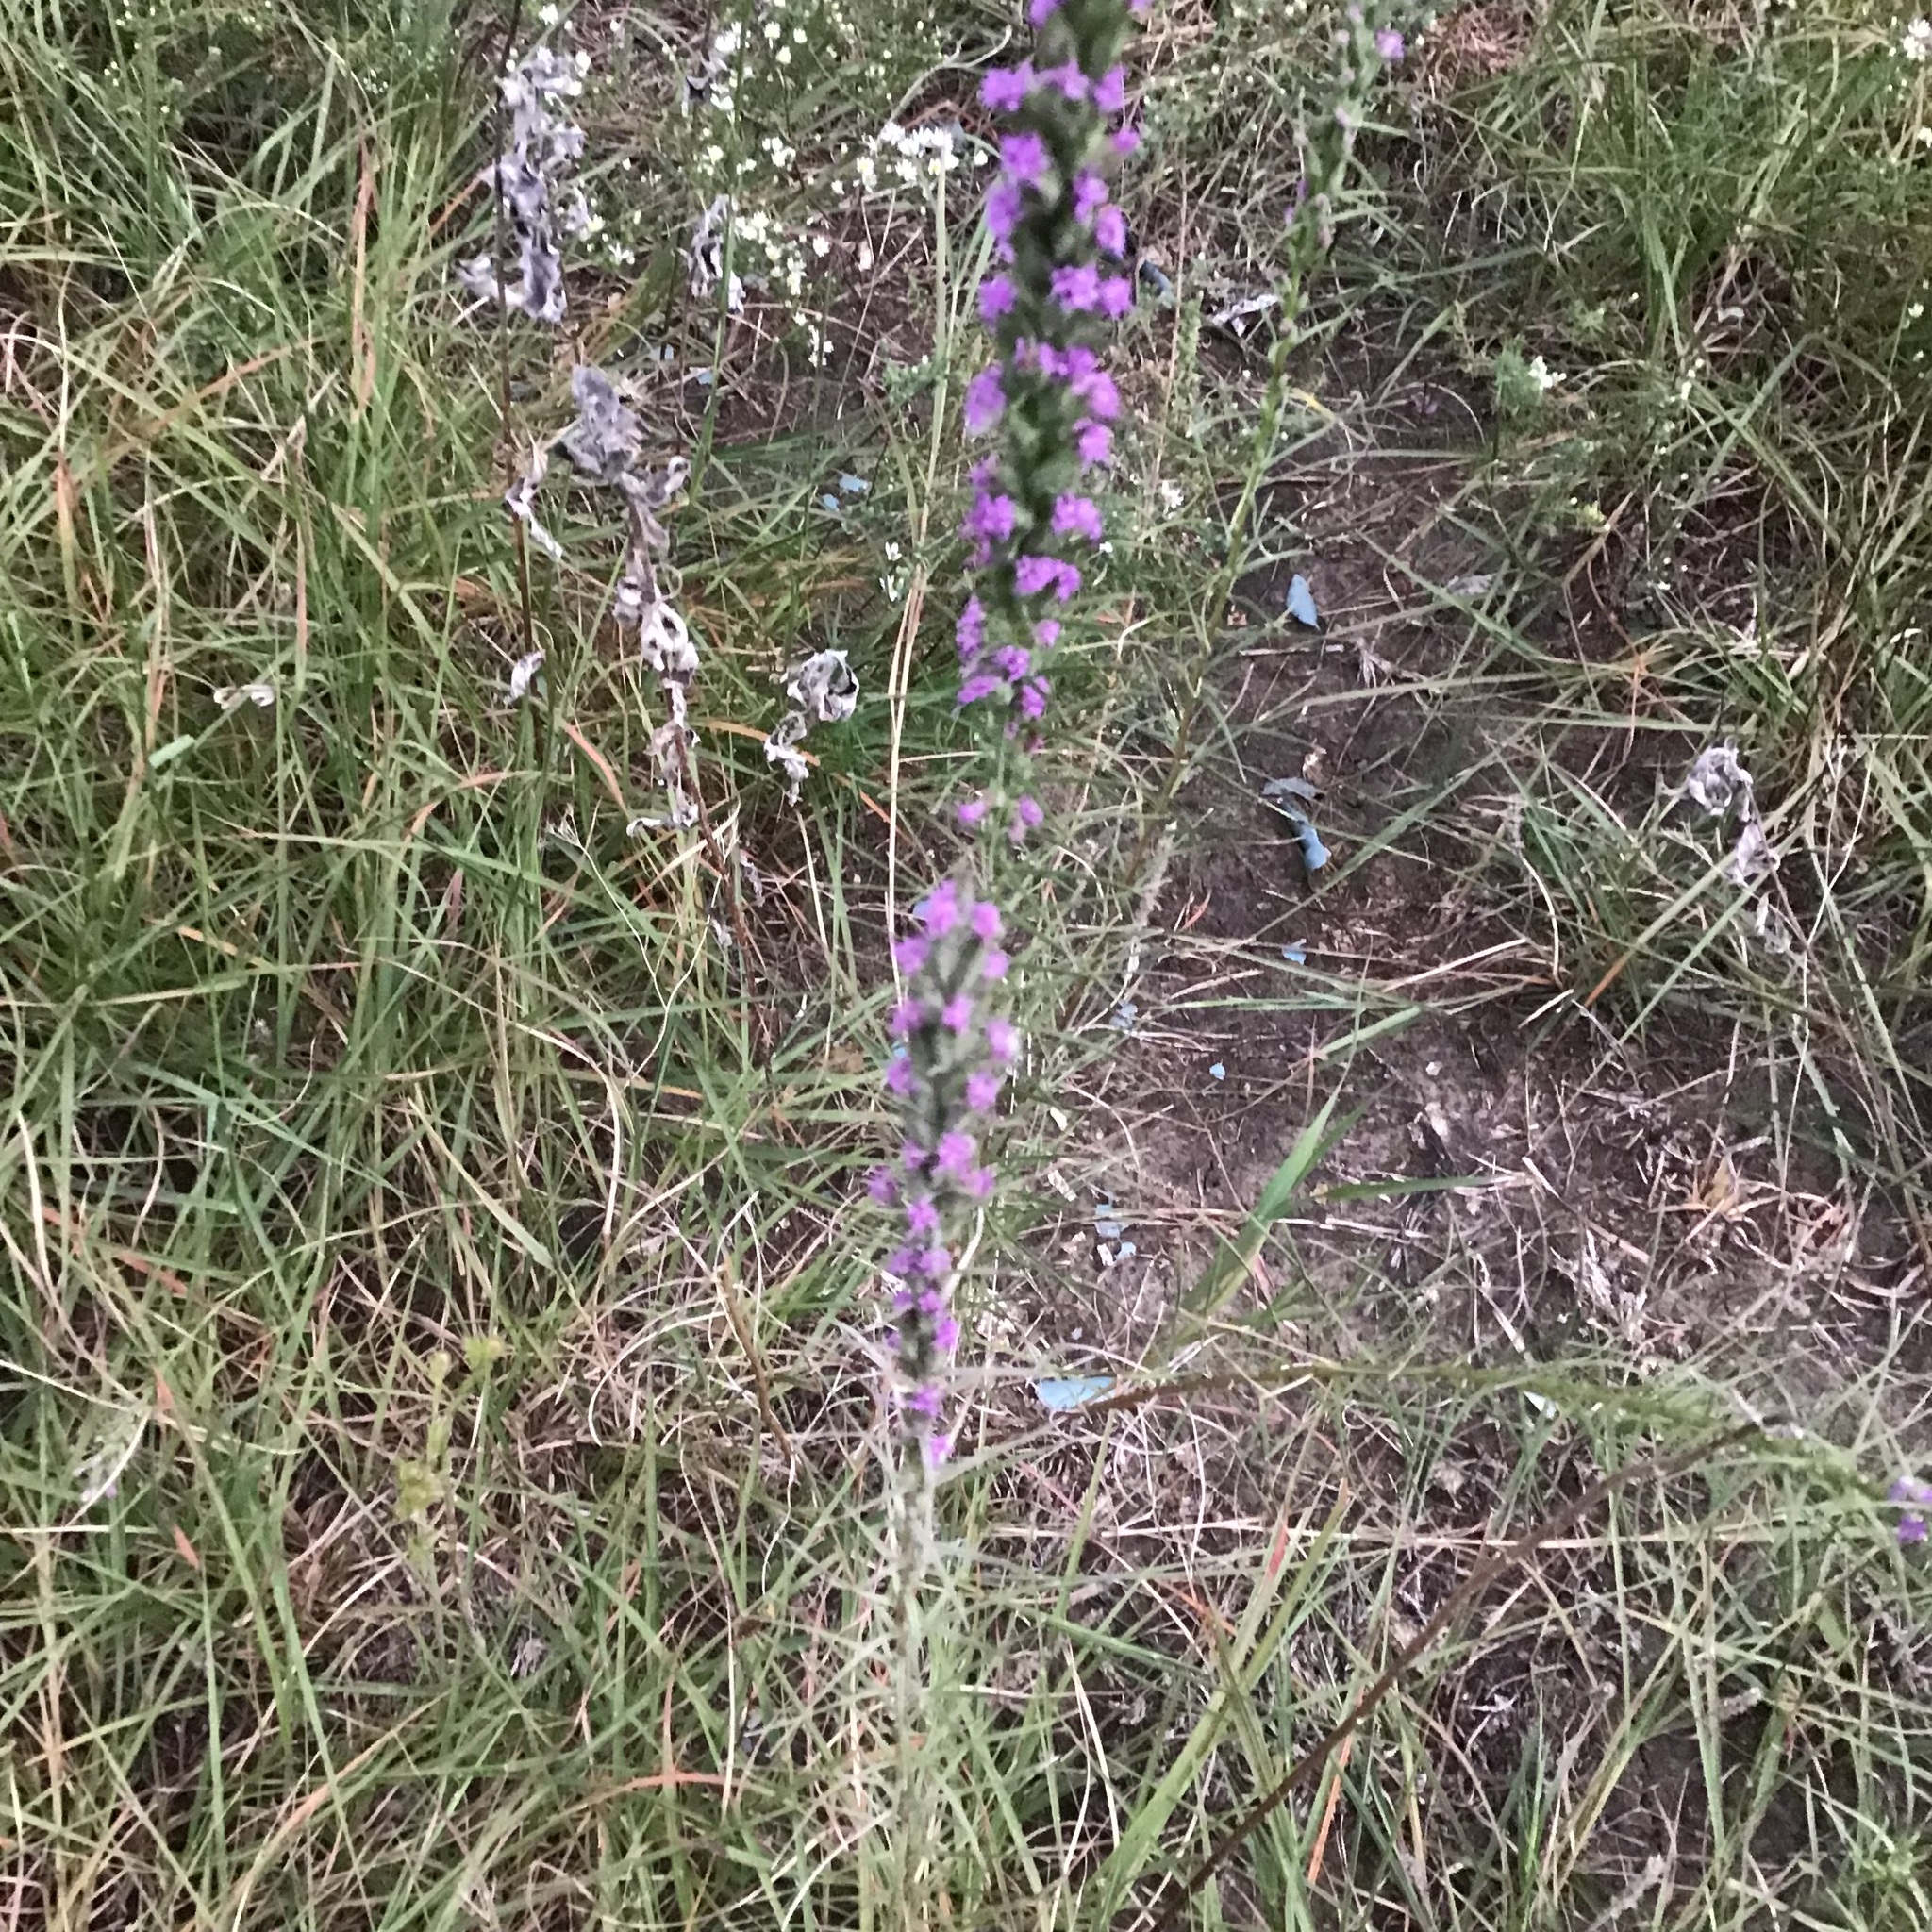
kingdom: Plantae
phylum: Tracheophyta
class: Magnoliopsida
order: Asterales
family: Asteraceae
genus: Liatris
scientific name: Liatris punctata
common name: Dotted gayfeather
